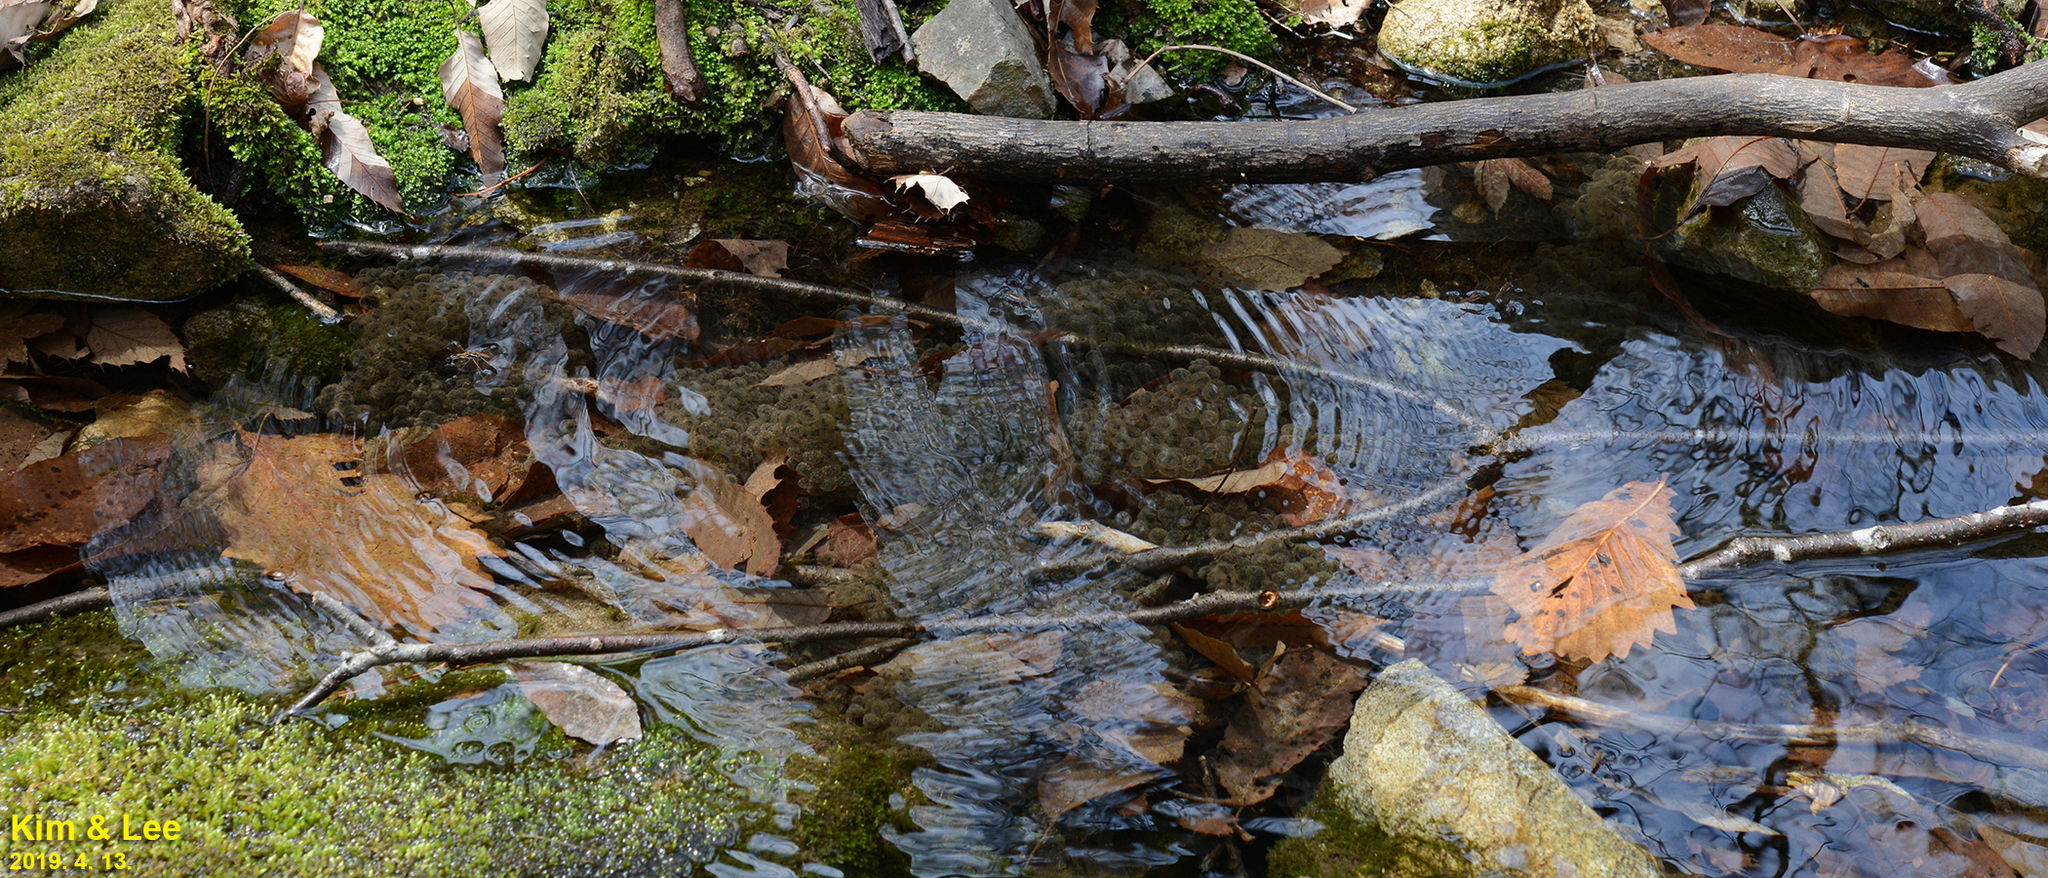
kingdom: Animalia
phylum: Chordata
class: Amphibia
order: Anura
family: Ranidae
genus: Rana
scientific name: Rana huanrenensis
